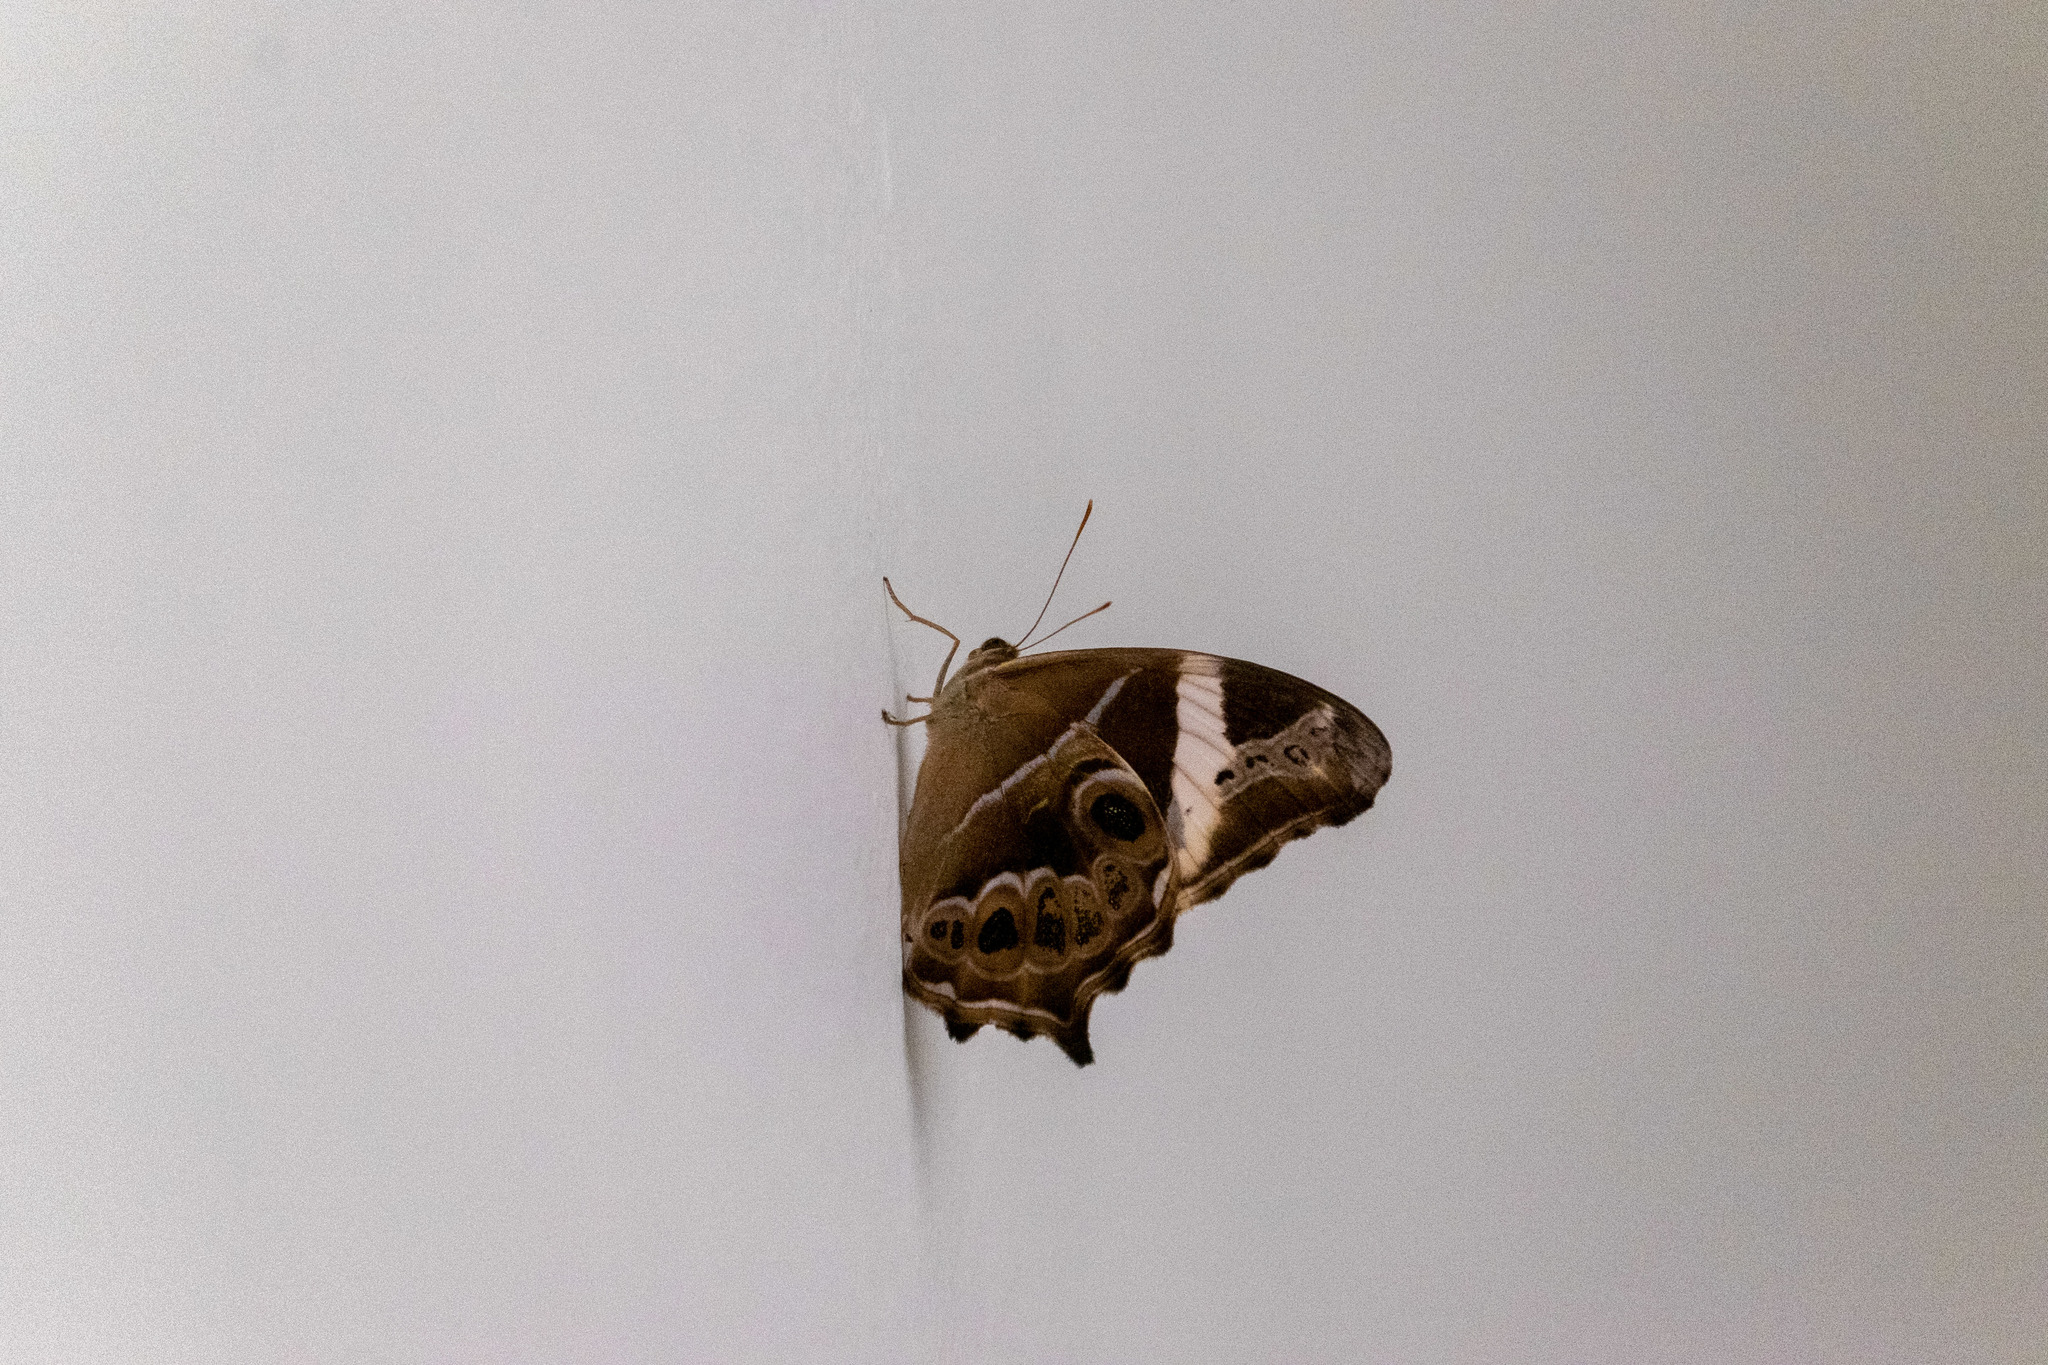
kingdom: Animalia
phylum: Arthropoda
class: Insecta
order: Lepidoptera
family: Nymphalidae
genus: Lethe
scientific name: Lethe europa
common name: Bamboo treebrown
